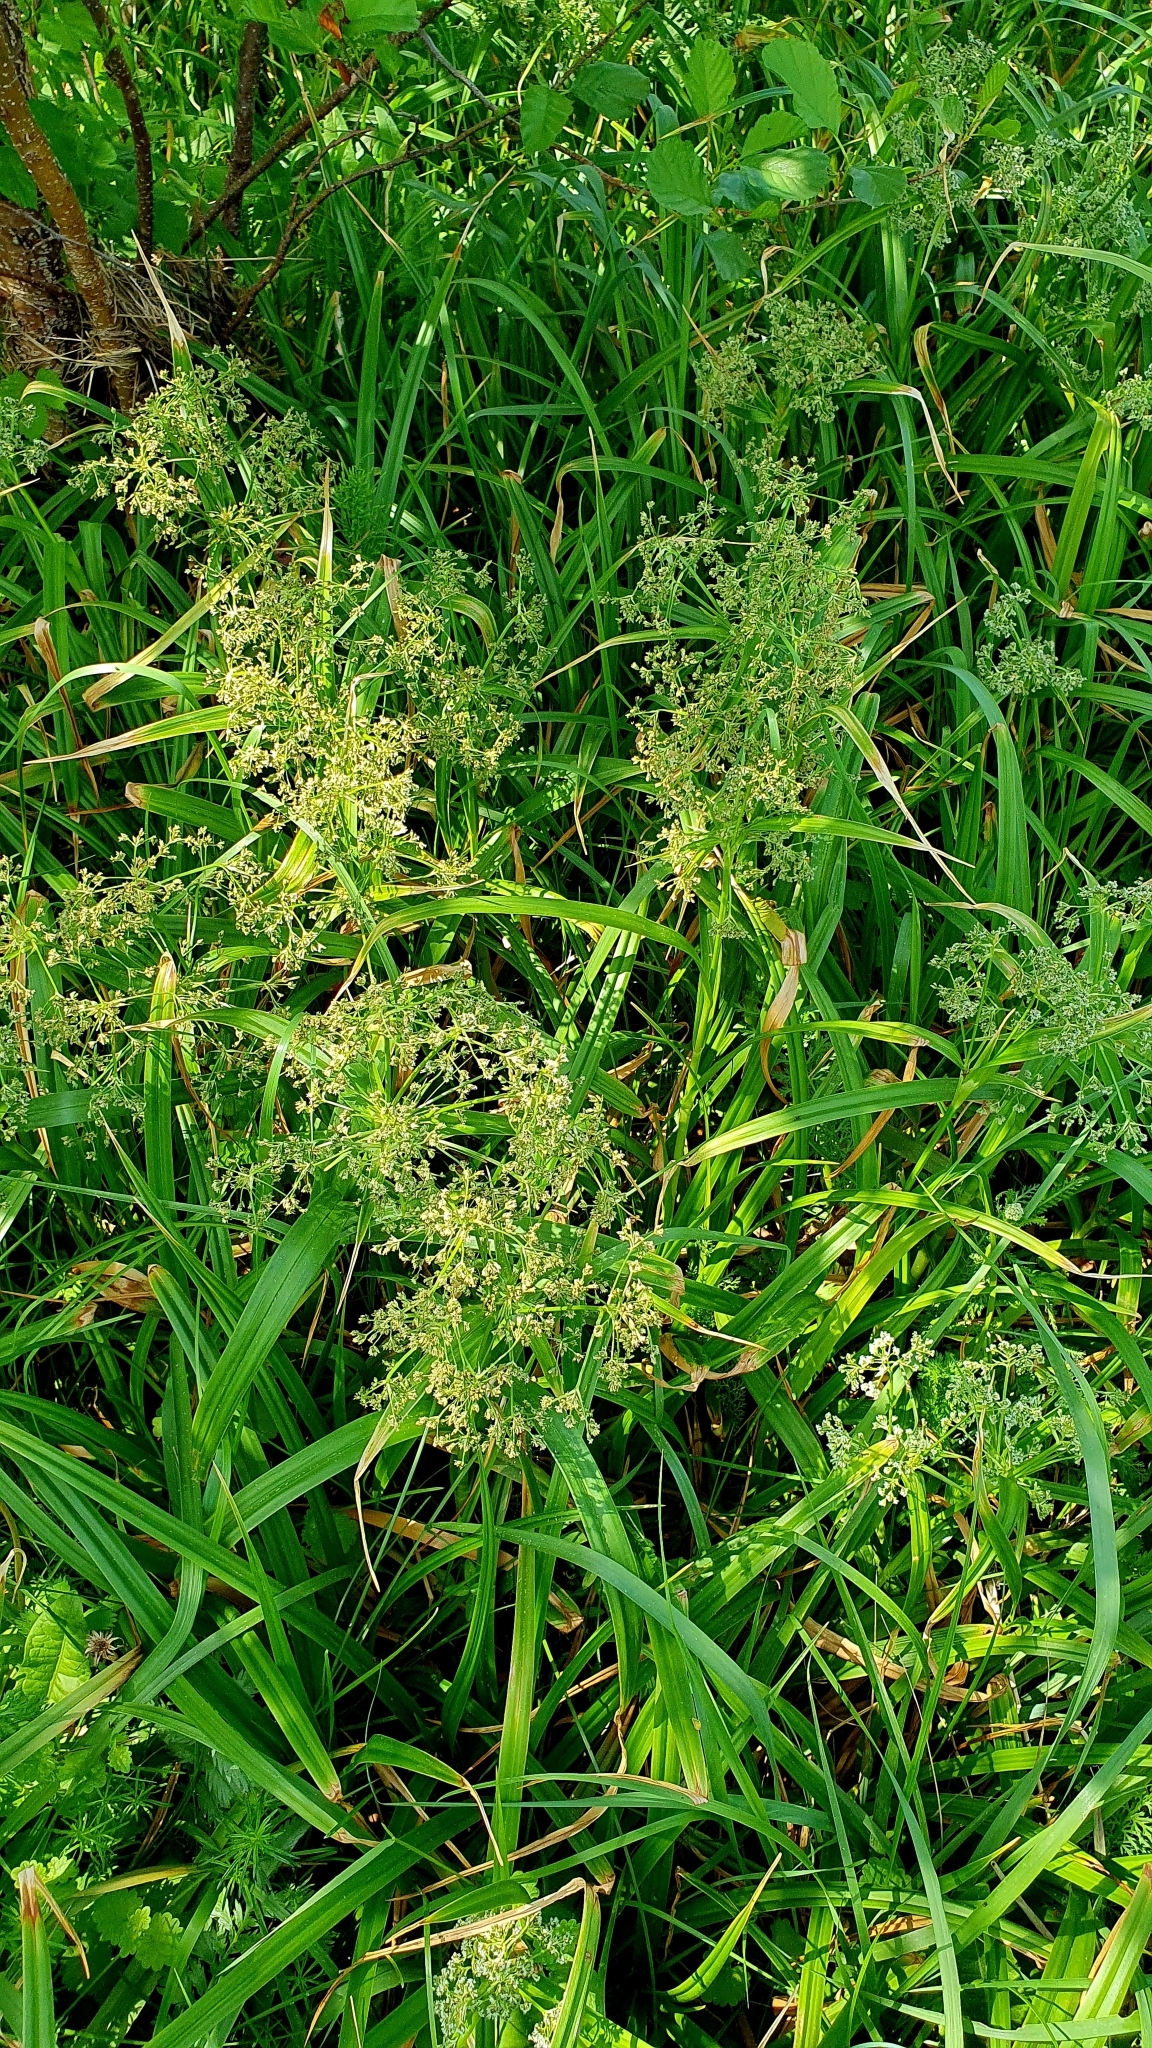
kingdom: Plantae
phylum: Tracheophyta
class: Liliopsida
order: Poales
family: Cyperaceae
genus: Scirpus
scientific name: Scirpus sylvaticus
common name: Wood club-rush
